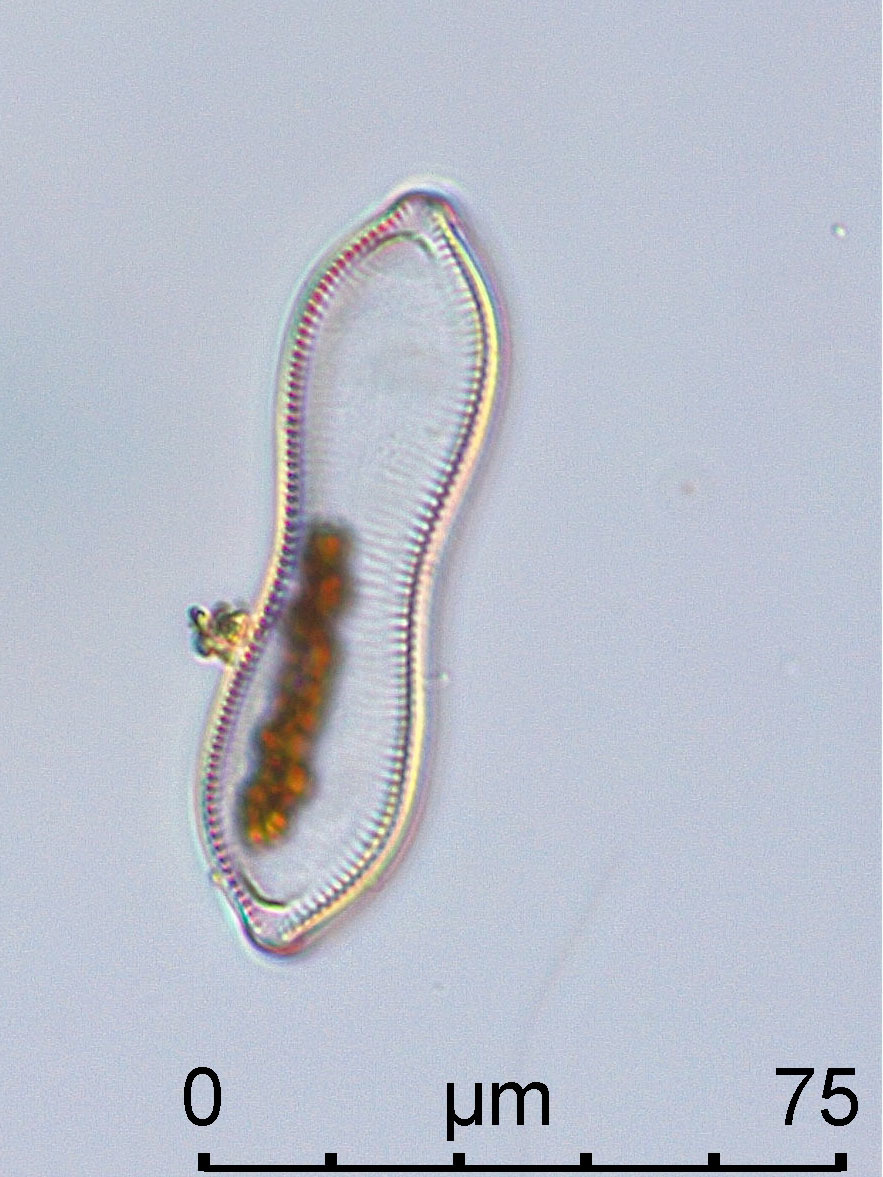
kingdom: Chromista
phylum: Ochrophyta
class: Bacillariophyceae
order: Surirellales
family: Surirellaceae
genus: Surirella
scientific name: Surirella librile
